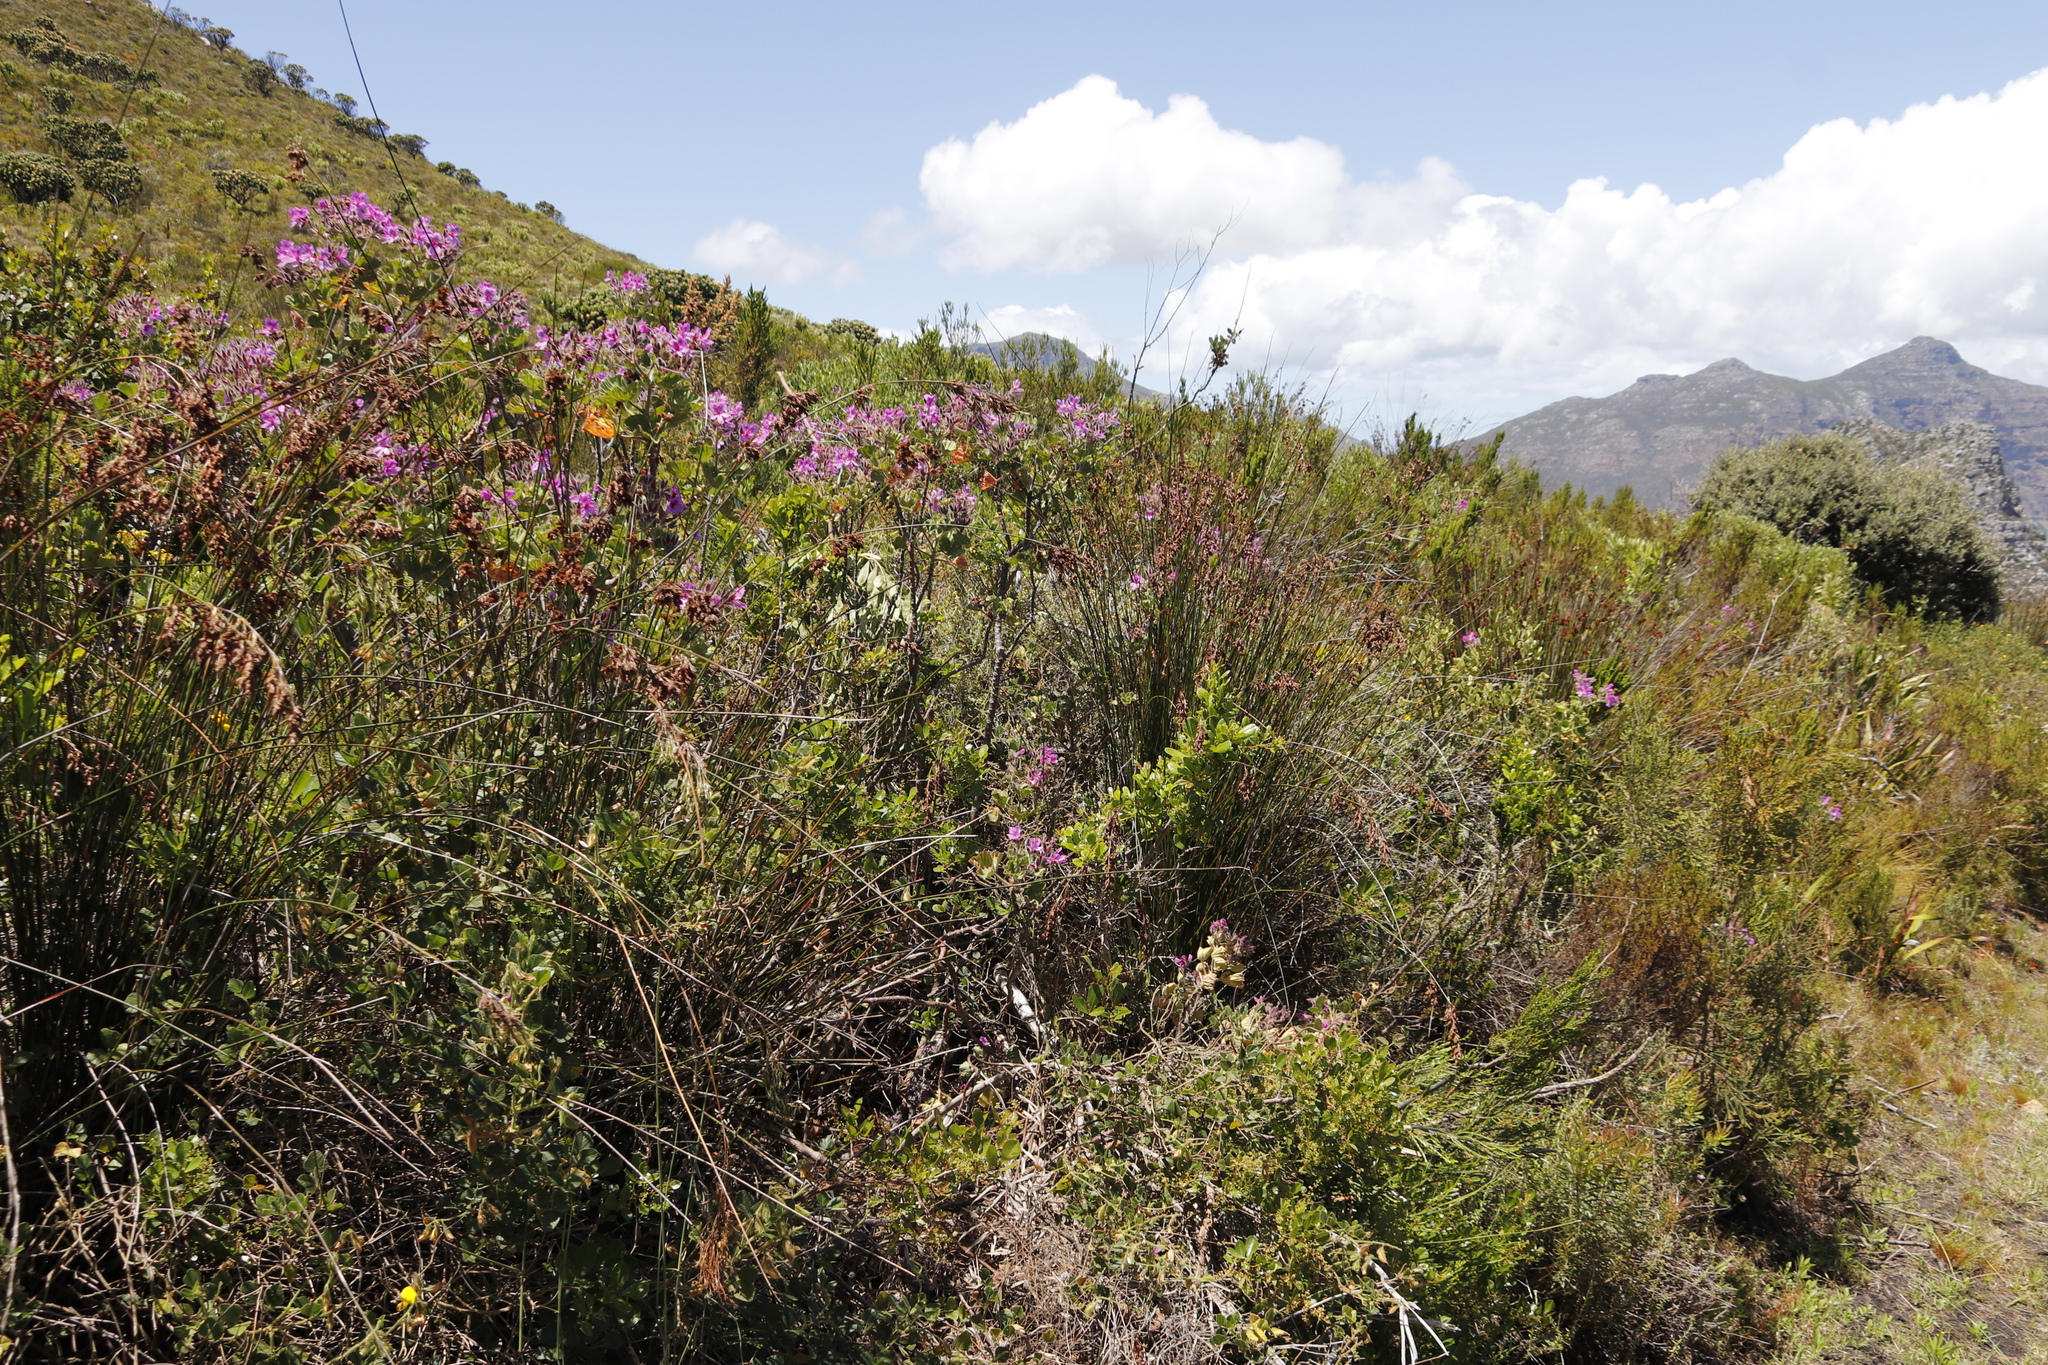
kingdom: Plantae
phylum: Tracheophyta
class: Magnoliopsida
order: Geraniales
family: Geraniaceae
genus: Pelargonium
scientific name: Pelargonium cucullatum
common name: Tree pelargonium
